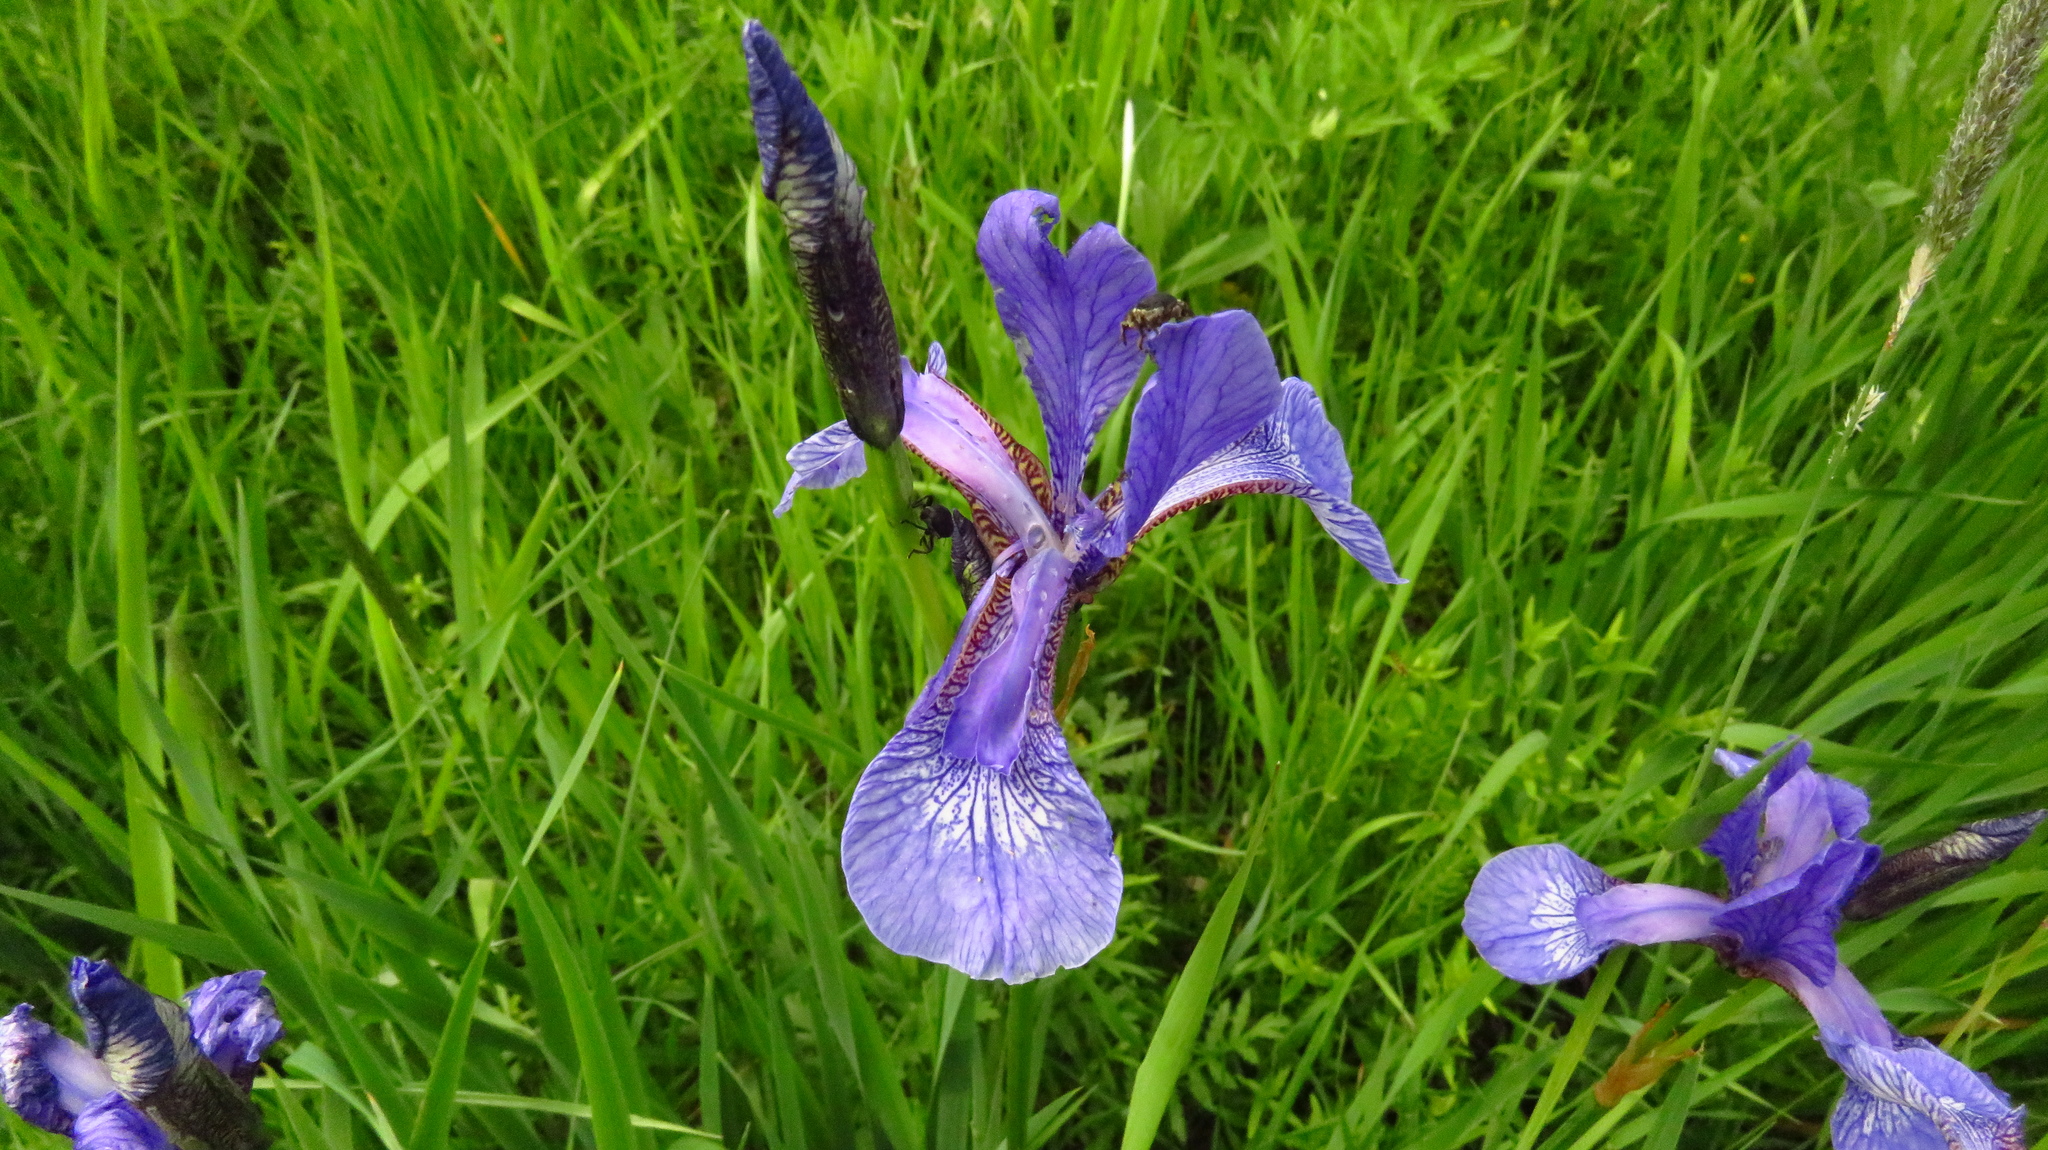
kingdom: Plantae
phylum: Tracheophyta
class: Liliopsida
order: Asparagales
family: Iridaceae
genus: Iris
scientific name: Iris sibirica
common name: Siberian iris
